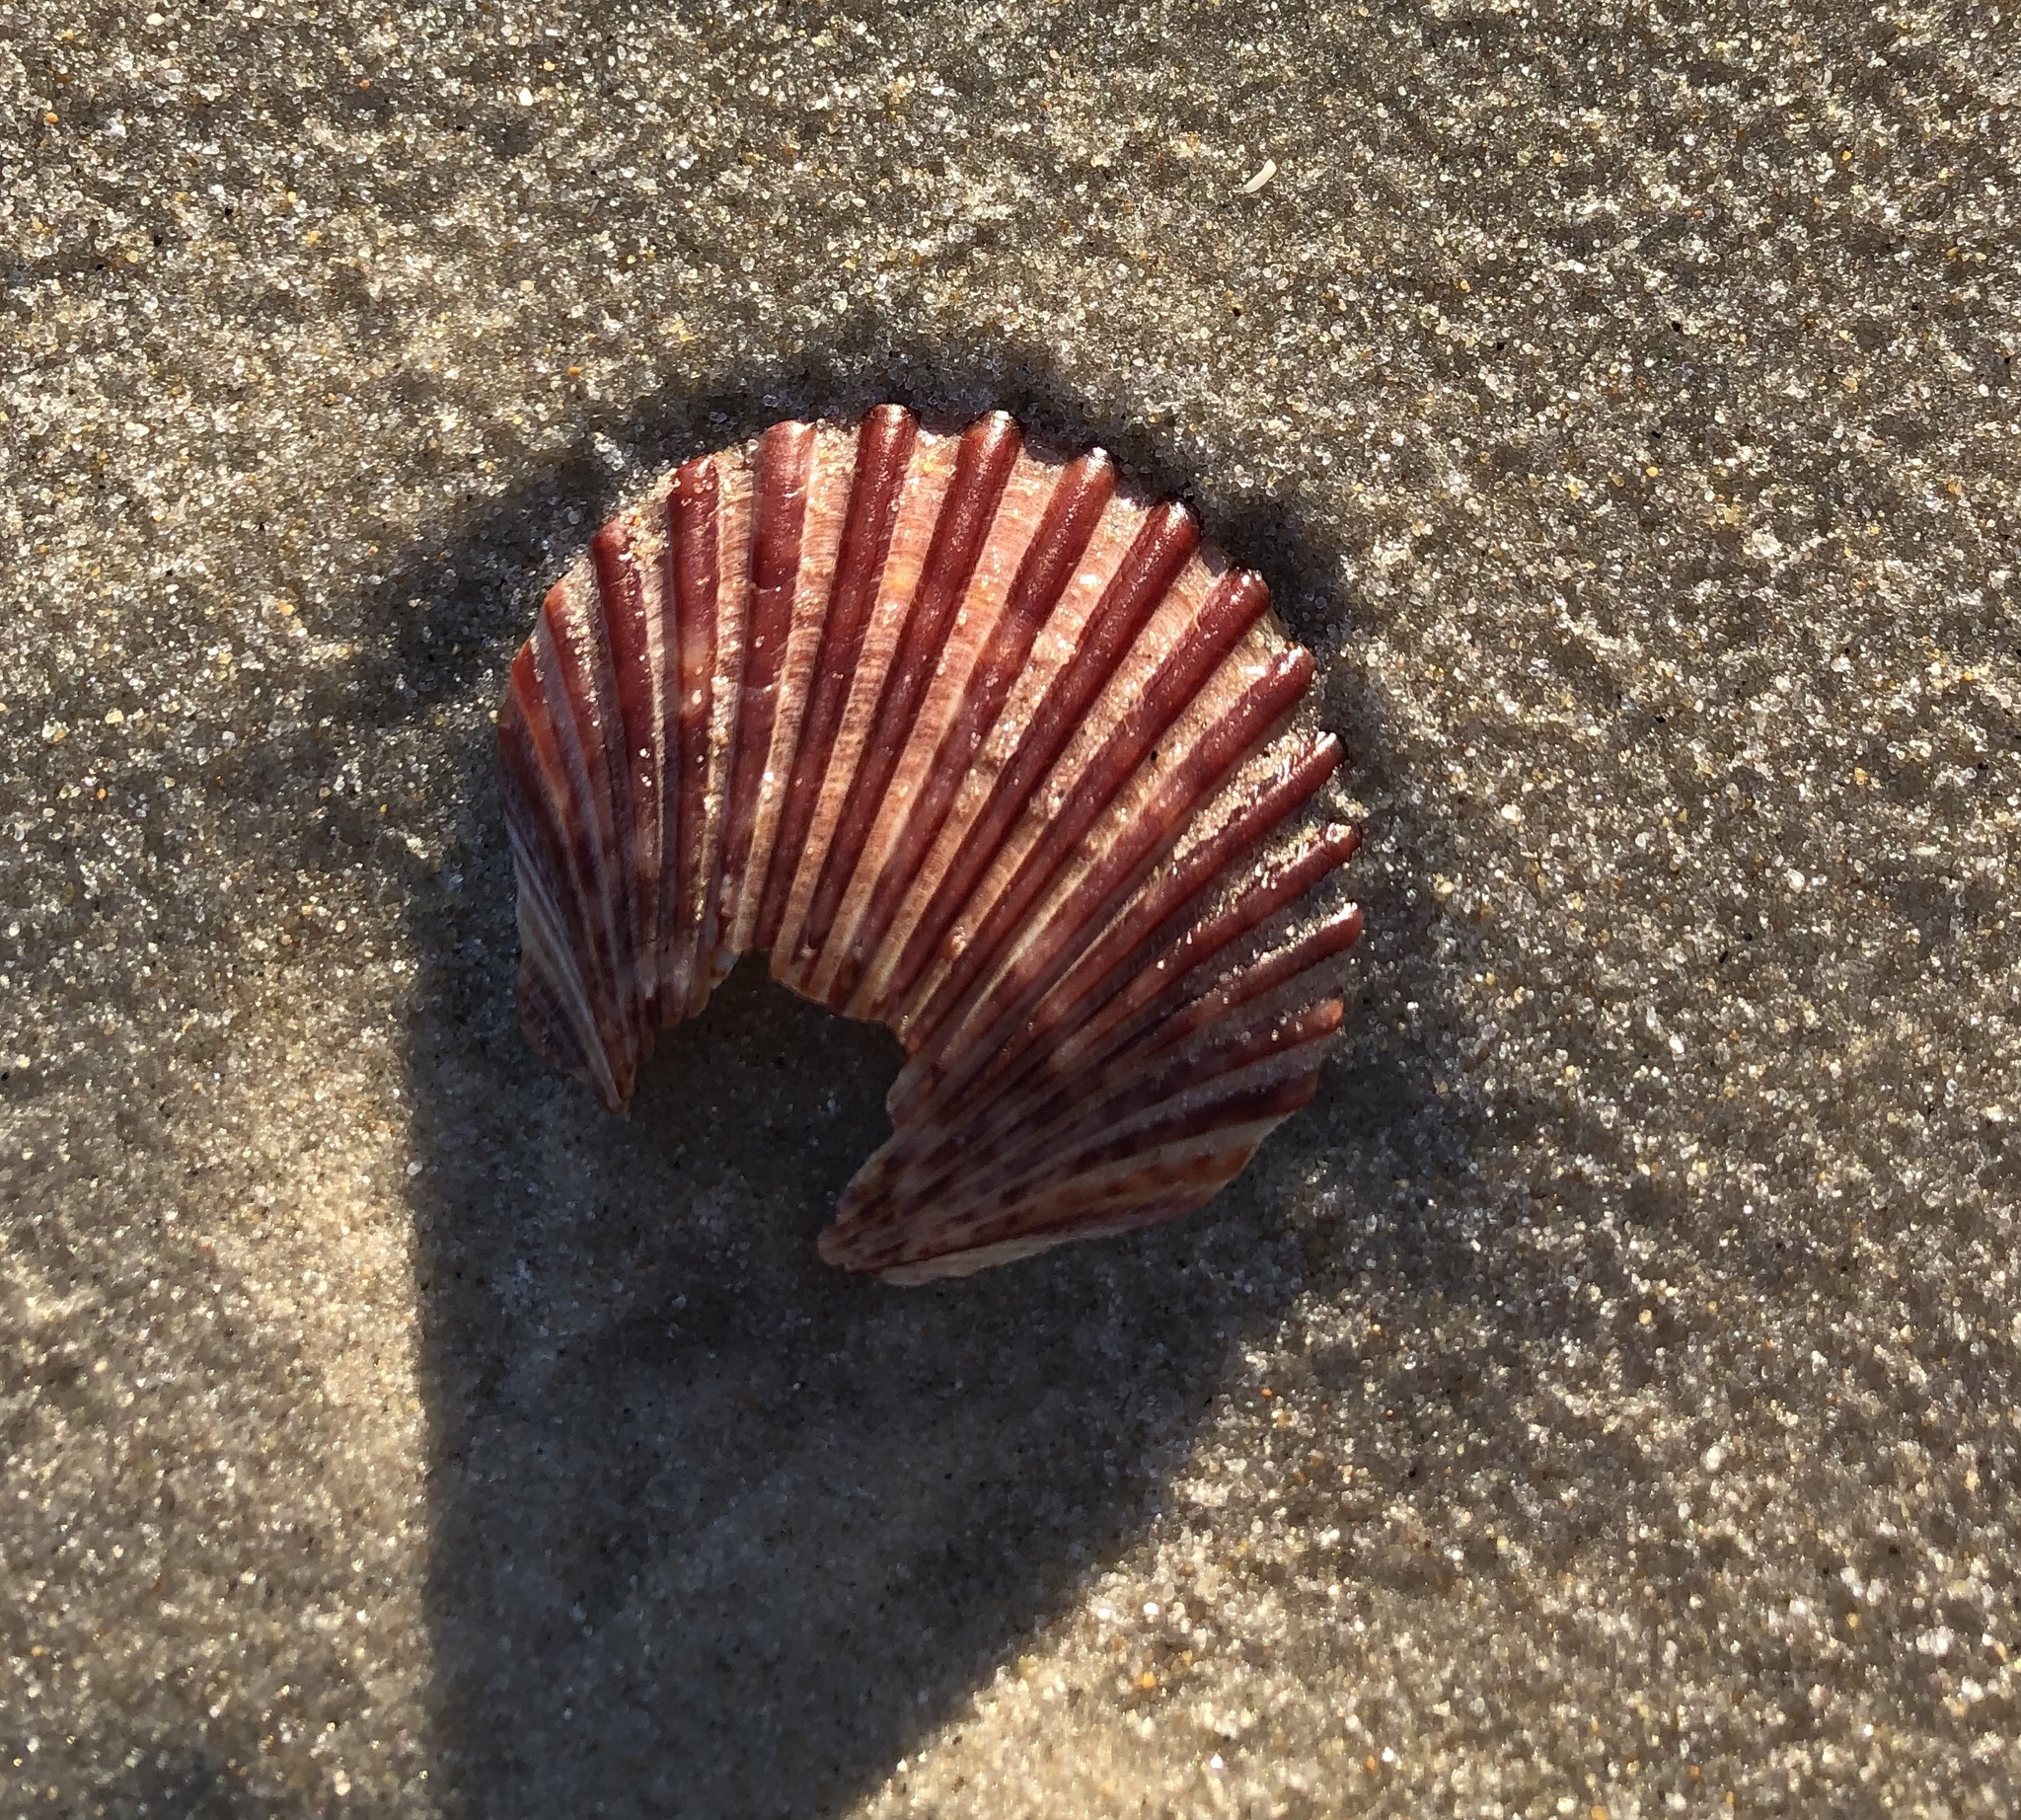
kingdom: Animalia
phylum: Mollusca
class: Bivalvia
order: Pectinida
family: Pectinidae
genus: Argopecten
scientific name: Argopecten irradians
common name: Atlantic bay scallop
